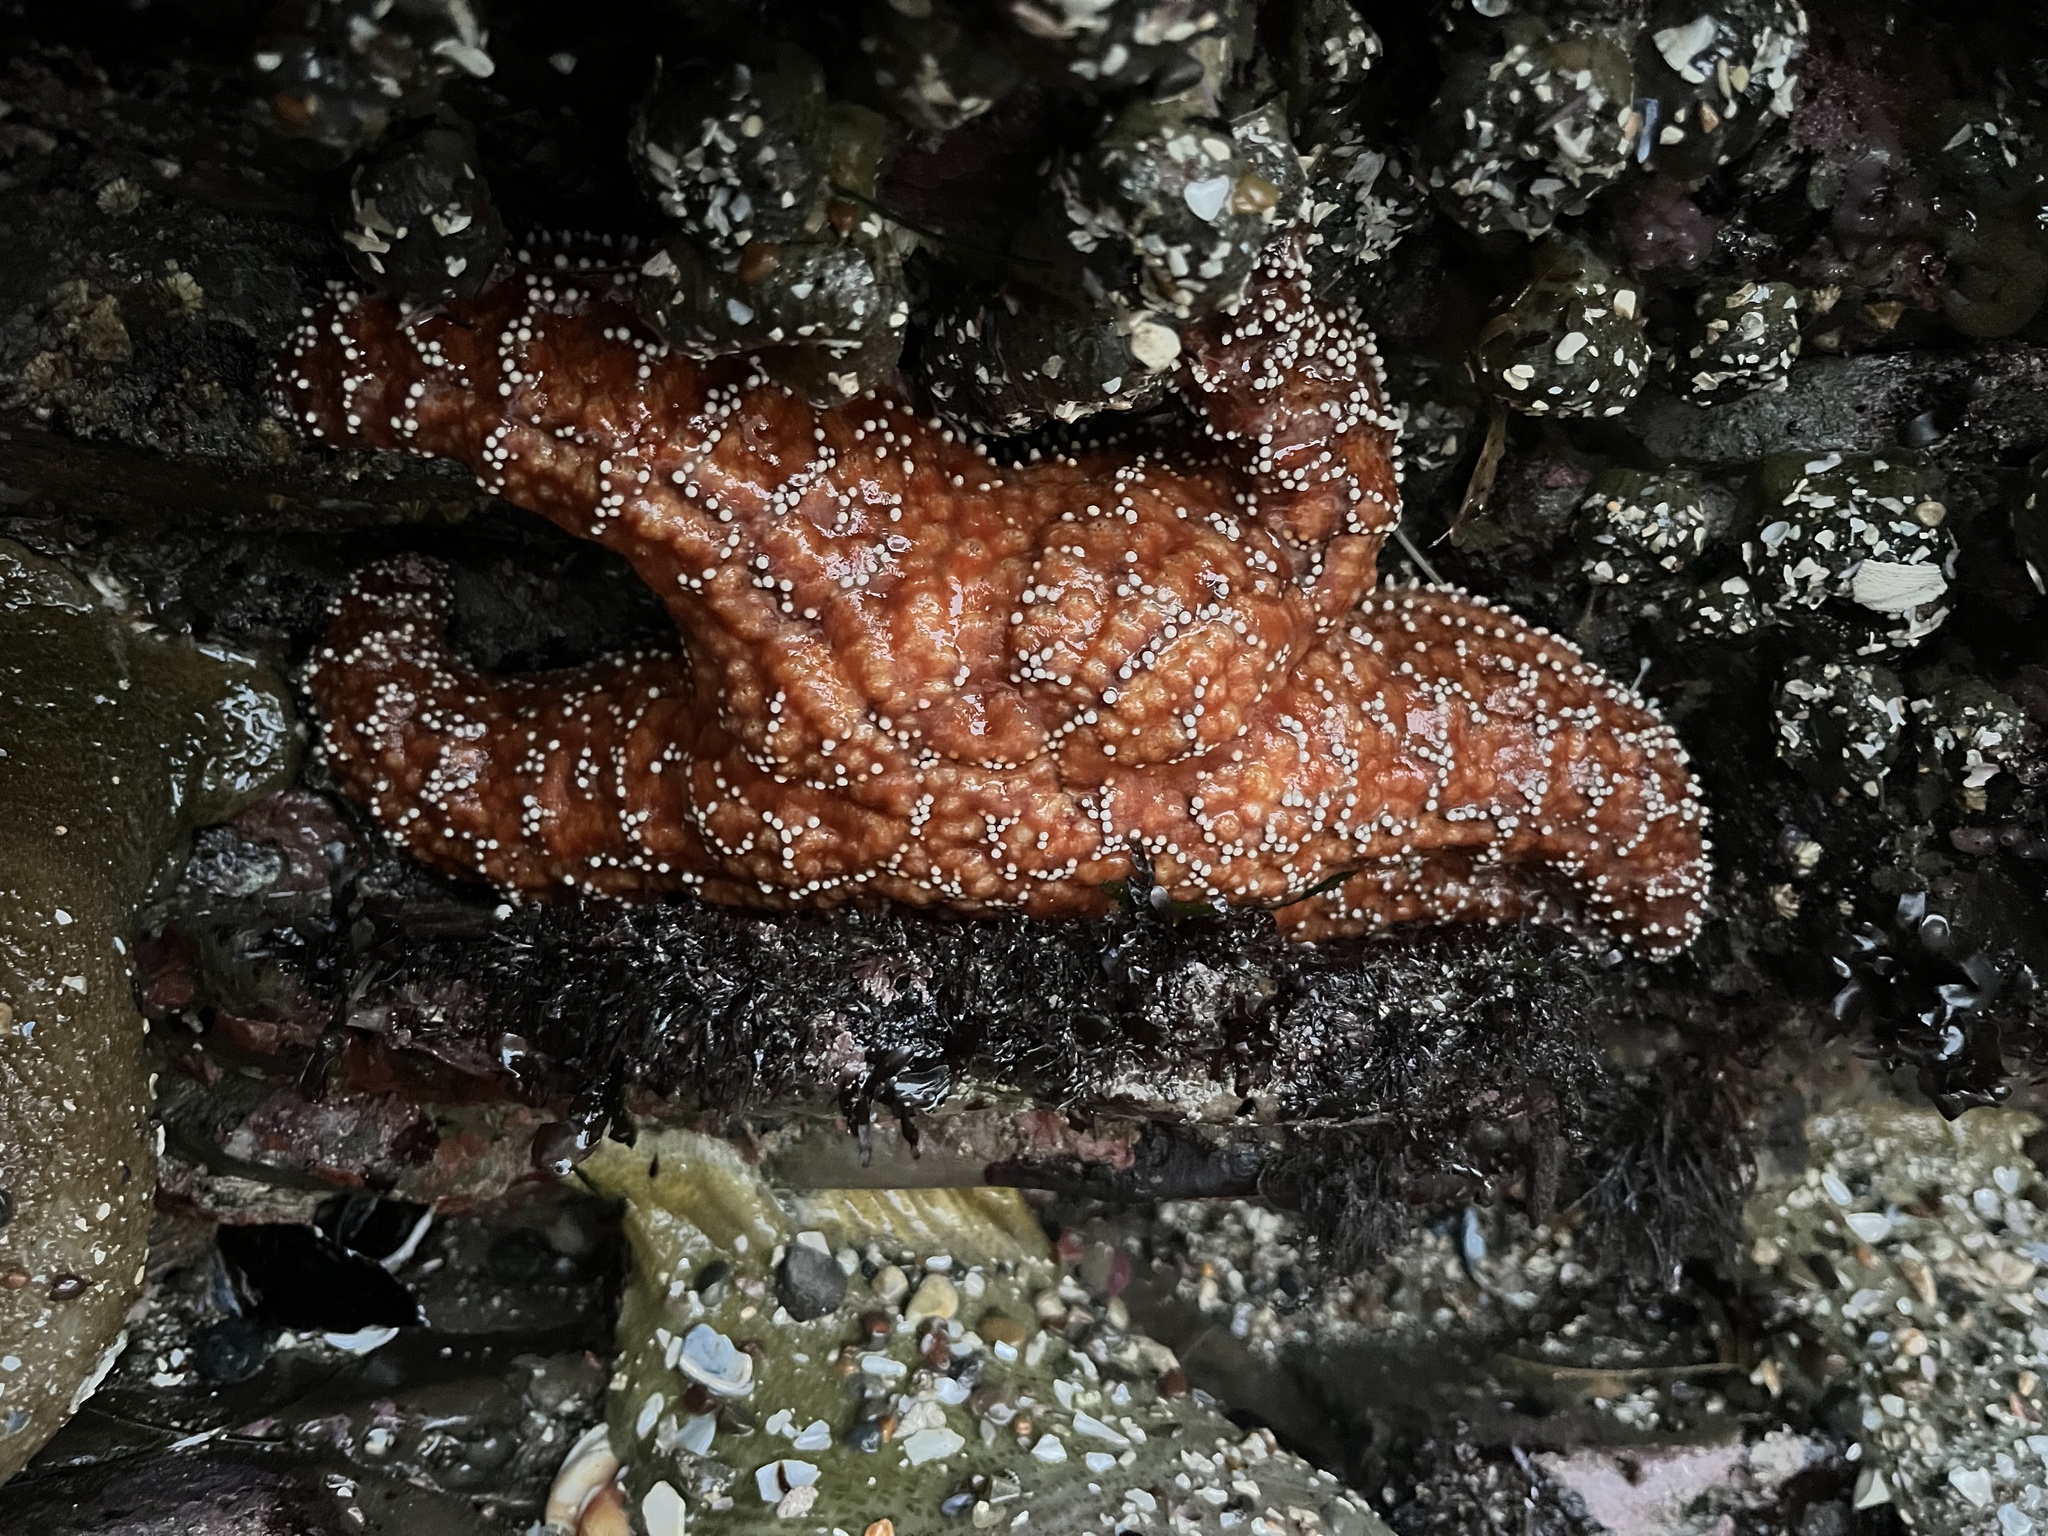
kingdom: Animalia
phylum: Echinodermata
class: Asteroidea
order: Forcipulatida
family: Asteriidae
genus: Pisaster
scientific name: Pisaster ochraceus
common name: Ochre stars
